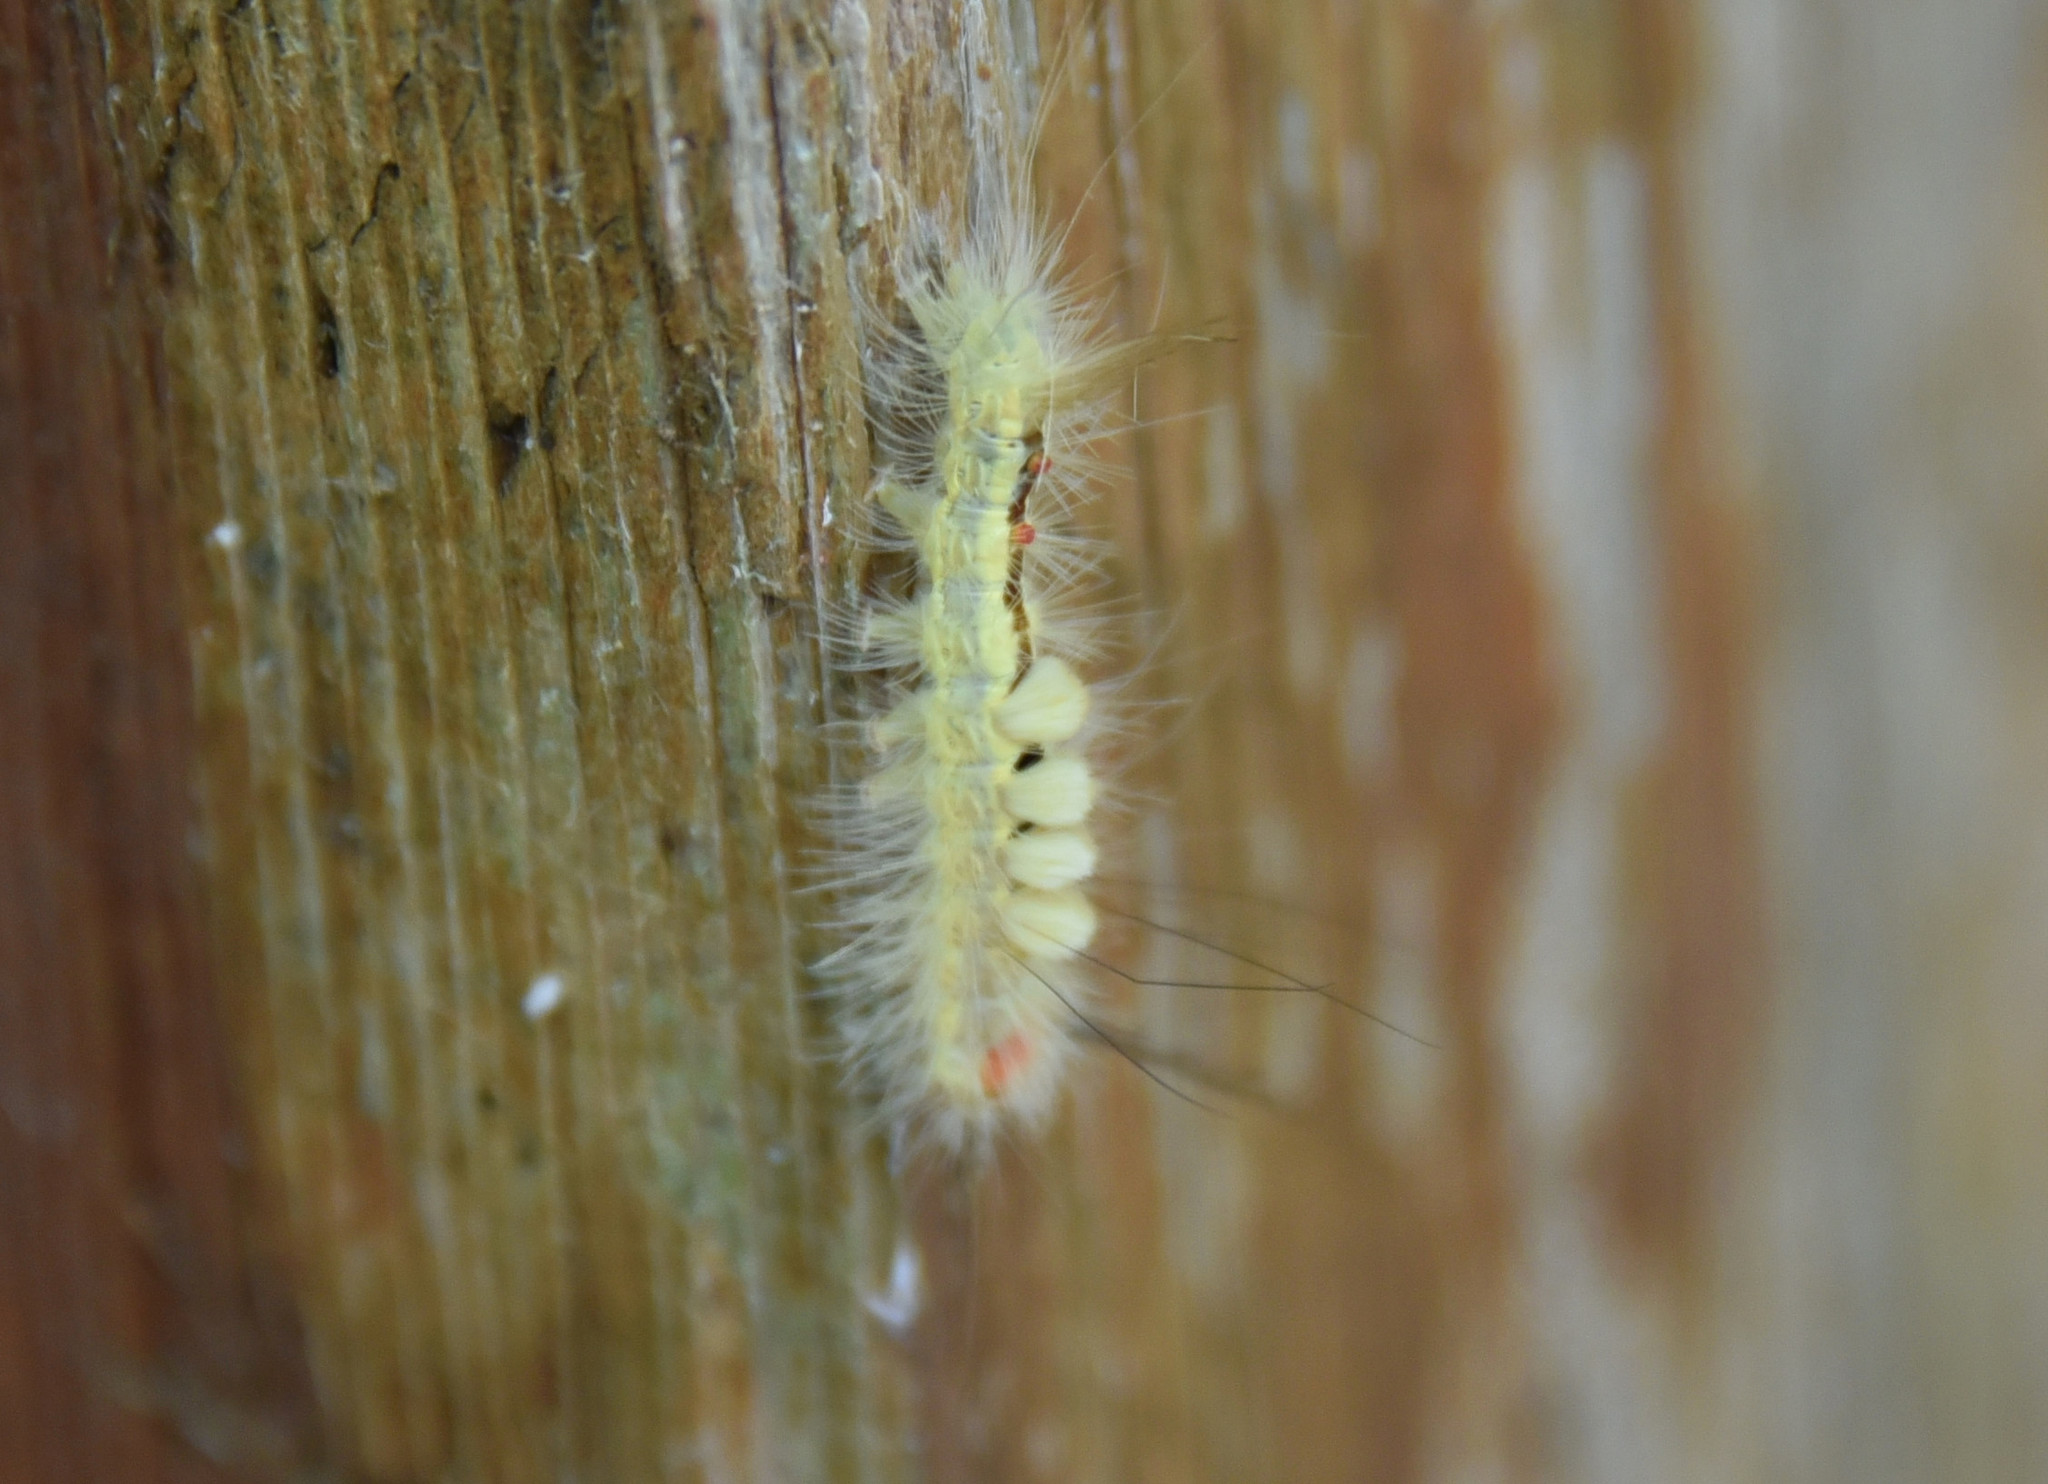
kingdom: Animalia
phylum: Arthropoda
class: Insecta
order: Lepidoptera
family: Erebidae
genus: Orgyia
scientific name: Orgyia leucostigma
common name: White-marked tussock moth
